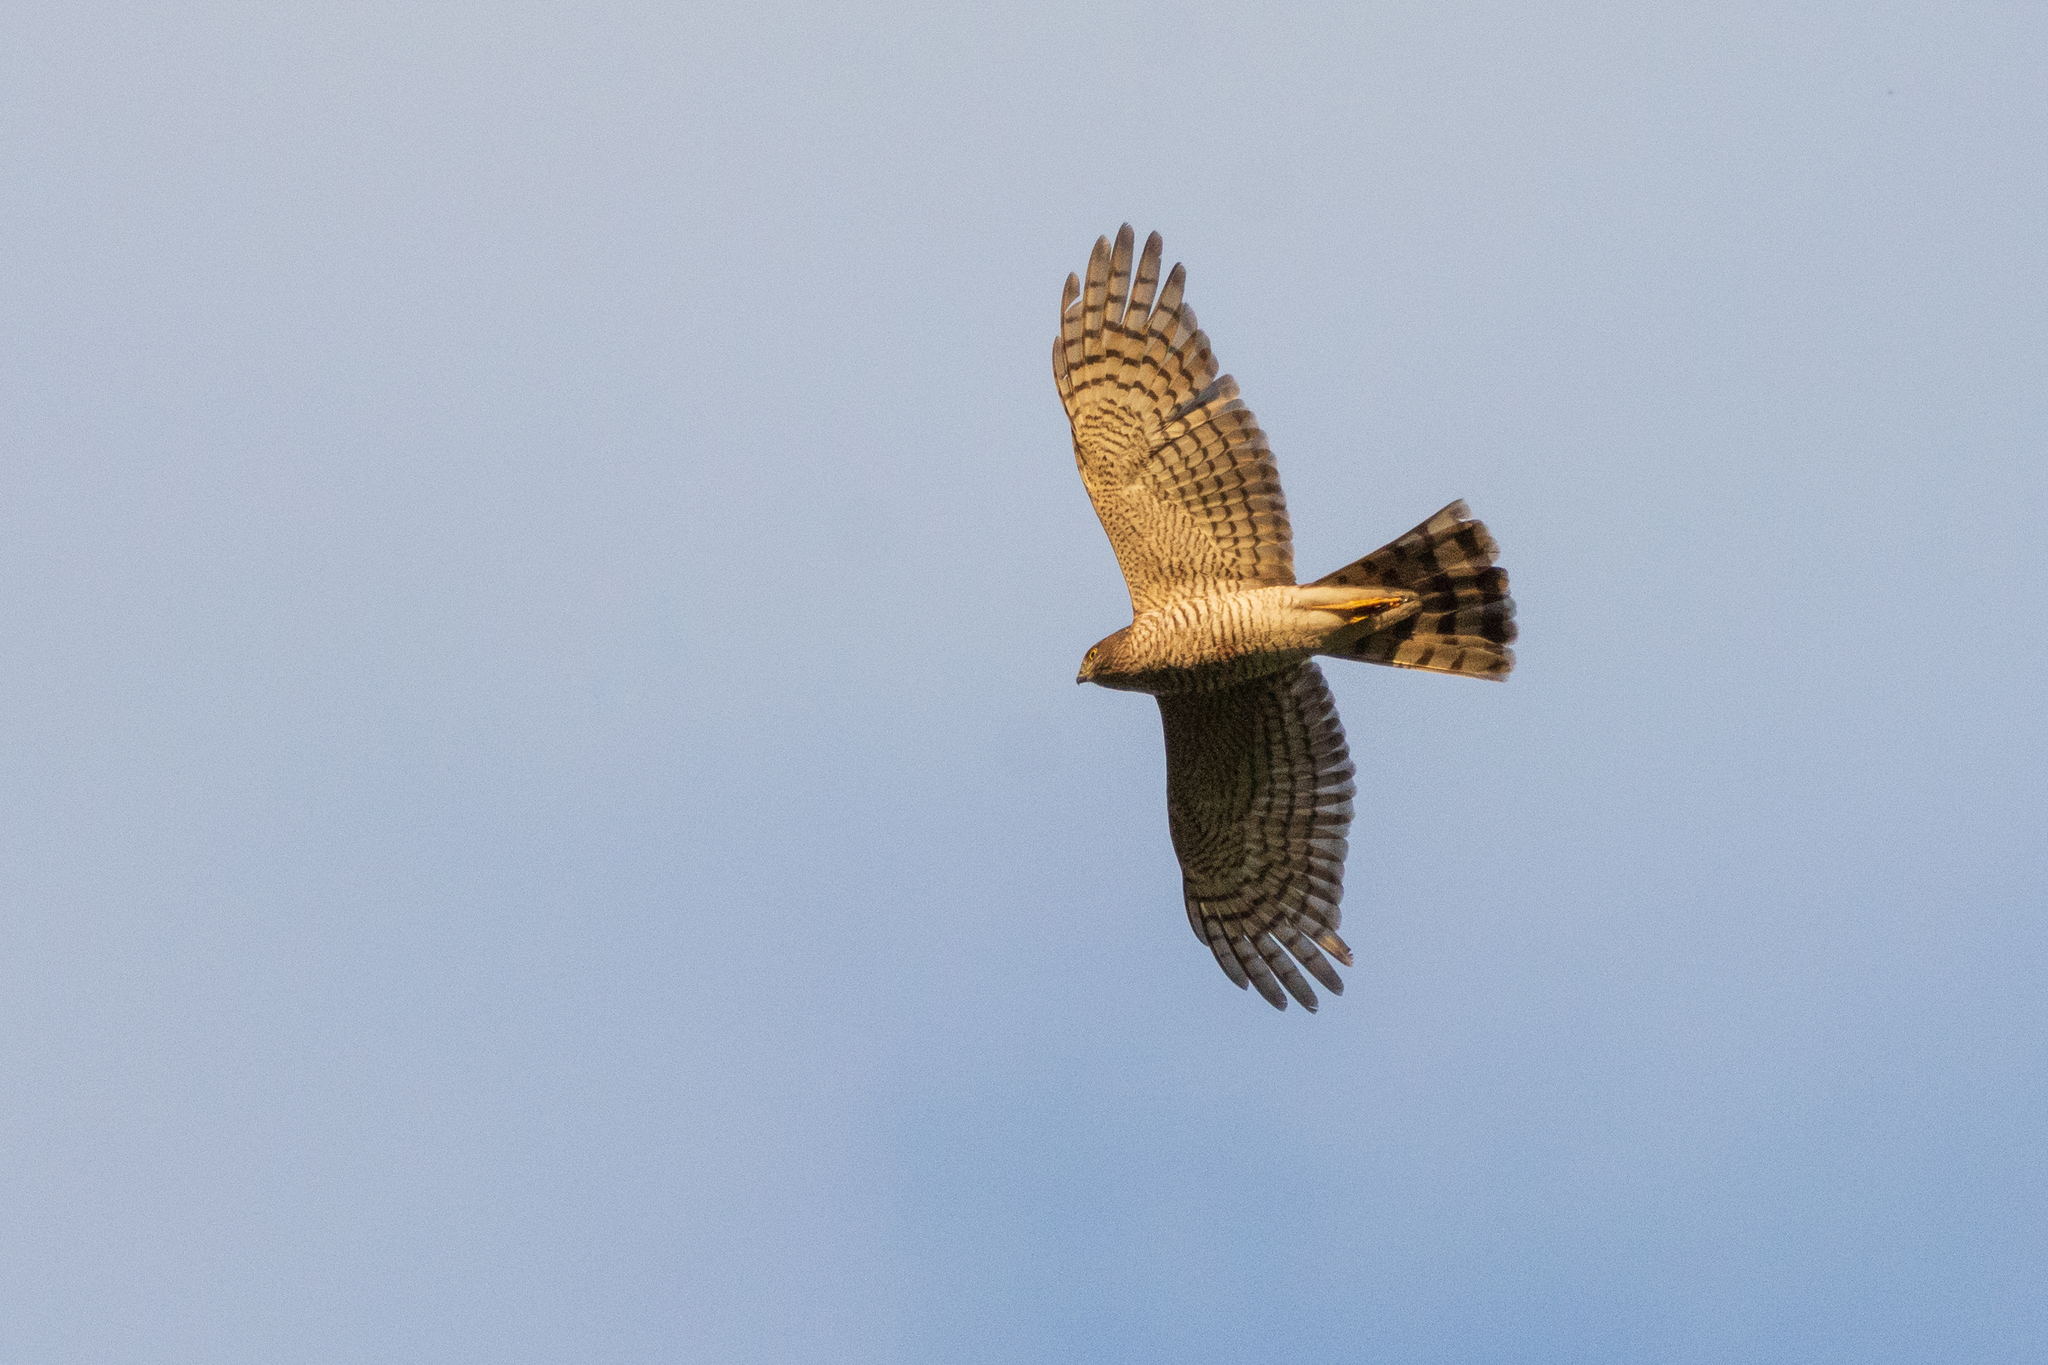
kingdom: Animalia
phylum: Chordata
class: Aves
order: Accipitriformes
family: Accipitridae
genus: Accipiter
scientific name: Accipiter nisus
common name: Eurasian sparrowhawk
